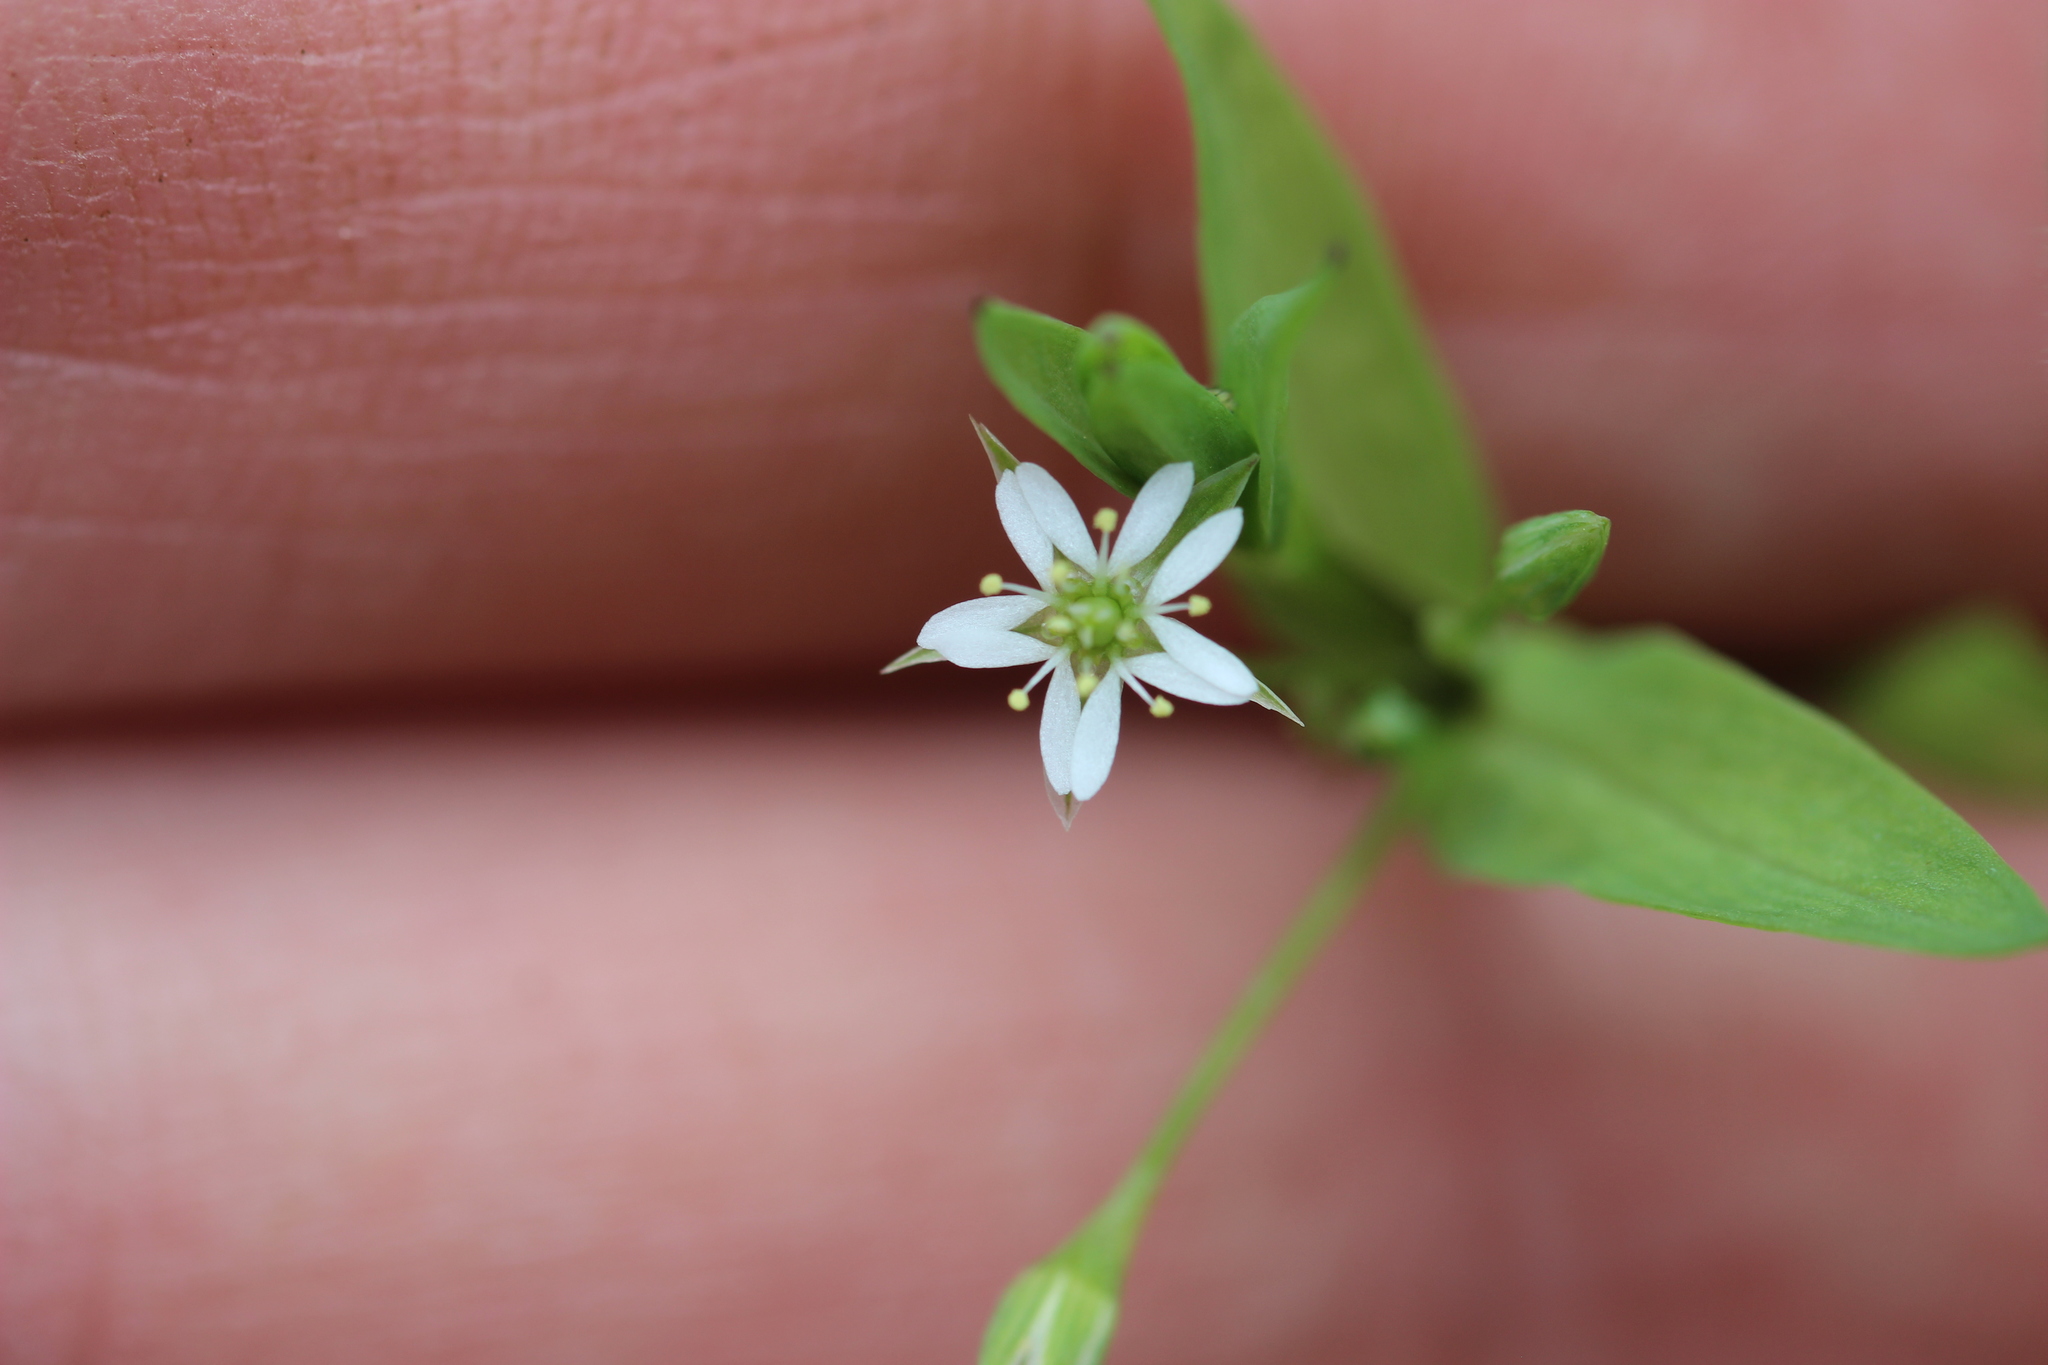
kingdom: Plantae
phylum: Tracheophyta
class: Magnoliopsida
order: Caryophyllales
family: Caryophyllaceae
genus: Stellaria
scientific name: Stellaria alsine
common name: Bog stitchwort
